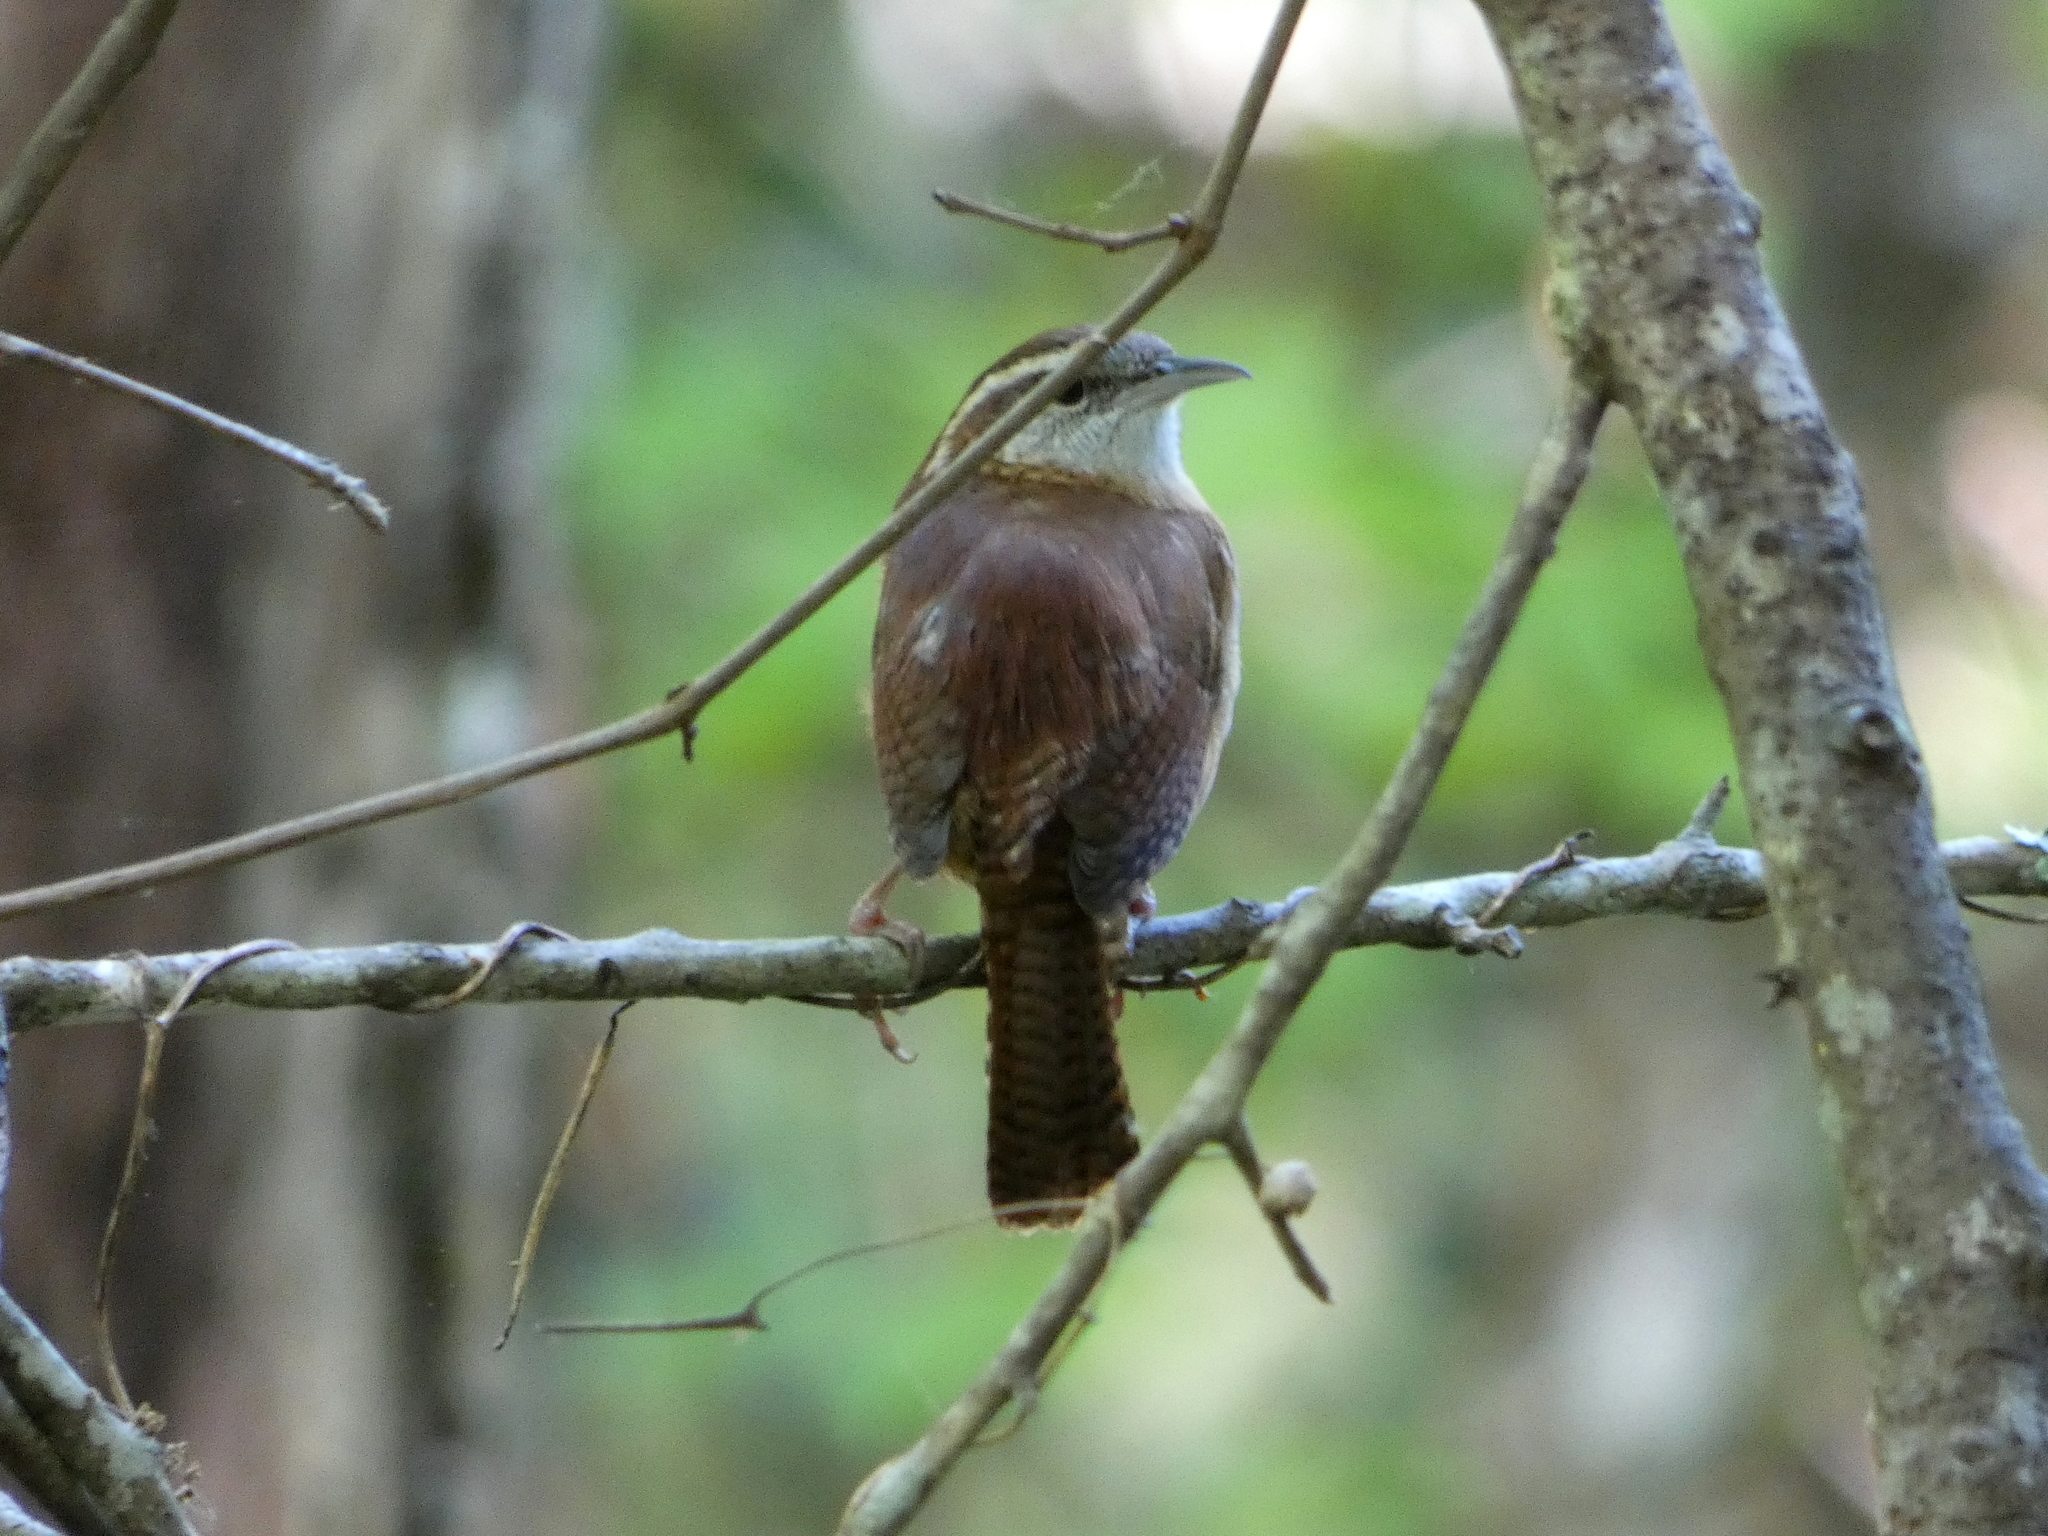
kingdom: Animalia
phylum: Chordata
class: Aves
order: Passeriformes
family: Troglodytidae
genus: Thryothorus
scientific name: Thryothorus ludovicianus
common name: Carolina wren
